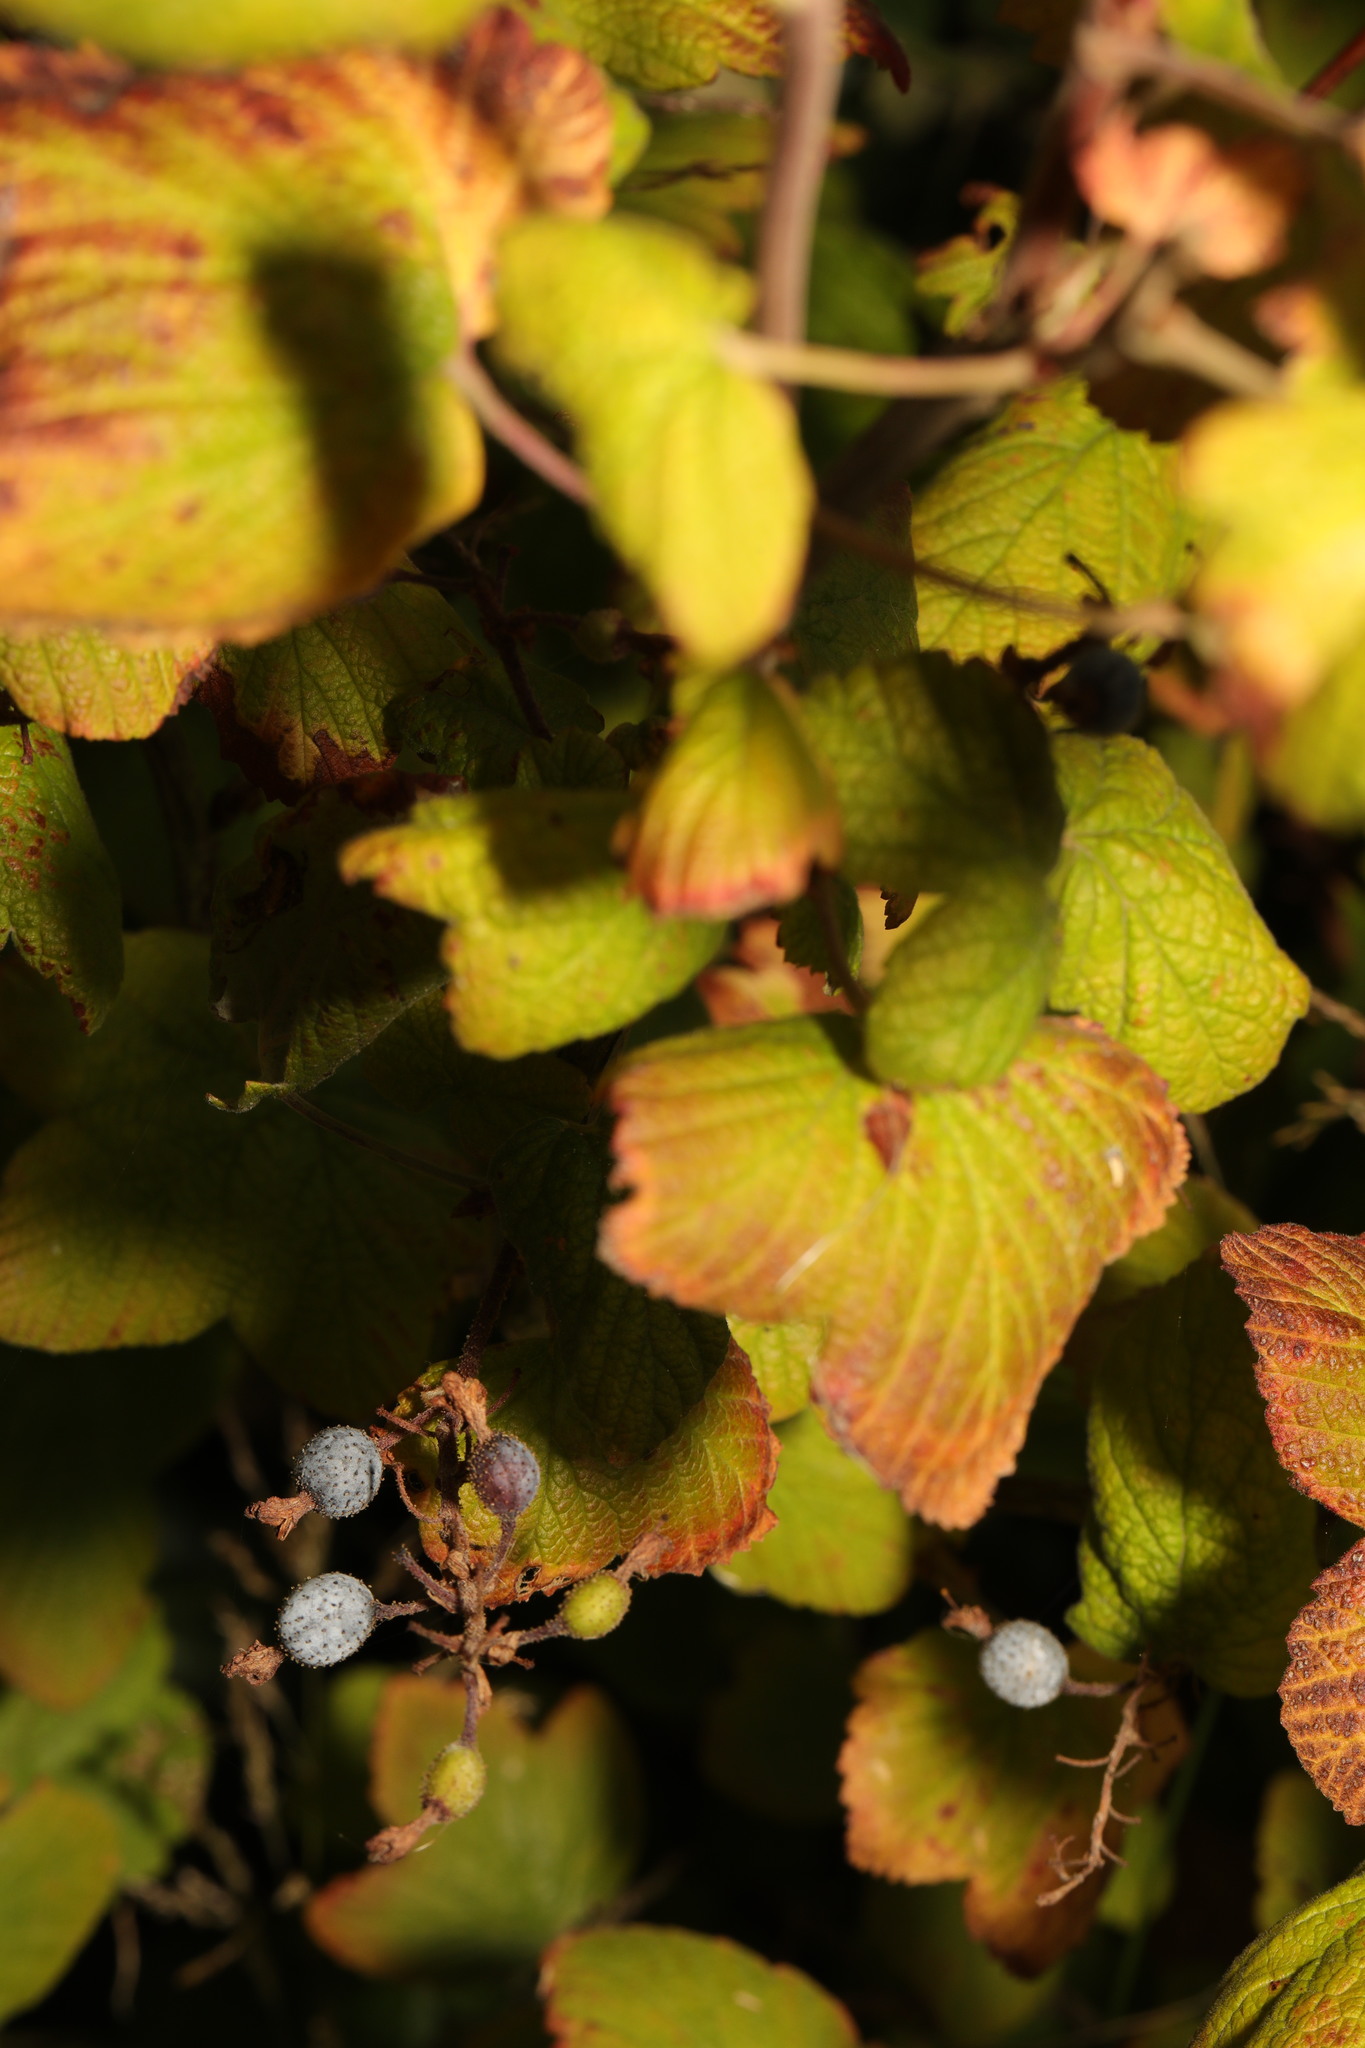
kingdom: Plantae
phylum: Tracheophyta
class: Magnoliopsida
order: Saxifragales
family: Grossulariaceae
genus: Ribes
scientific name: Ribes sanguineum
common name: Flowering currant
